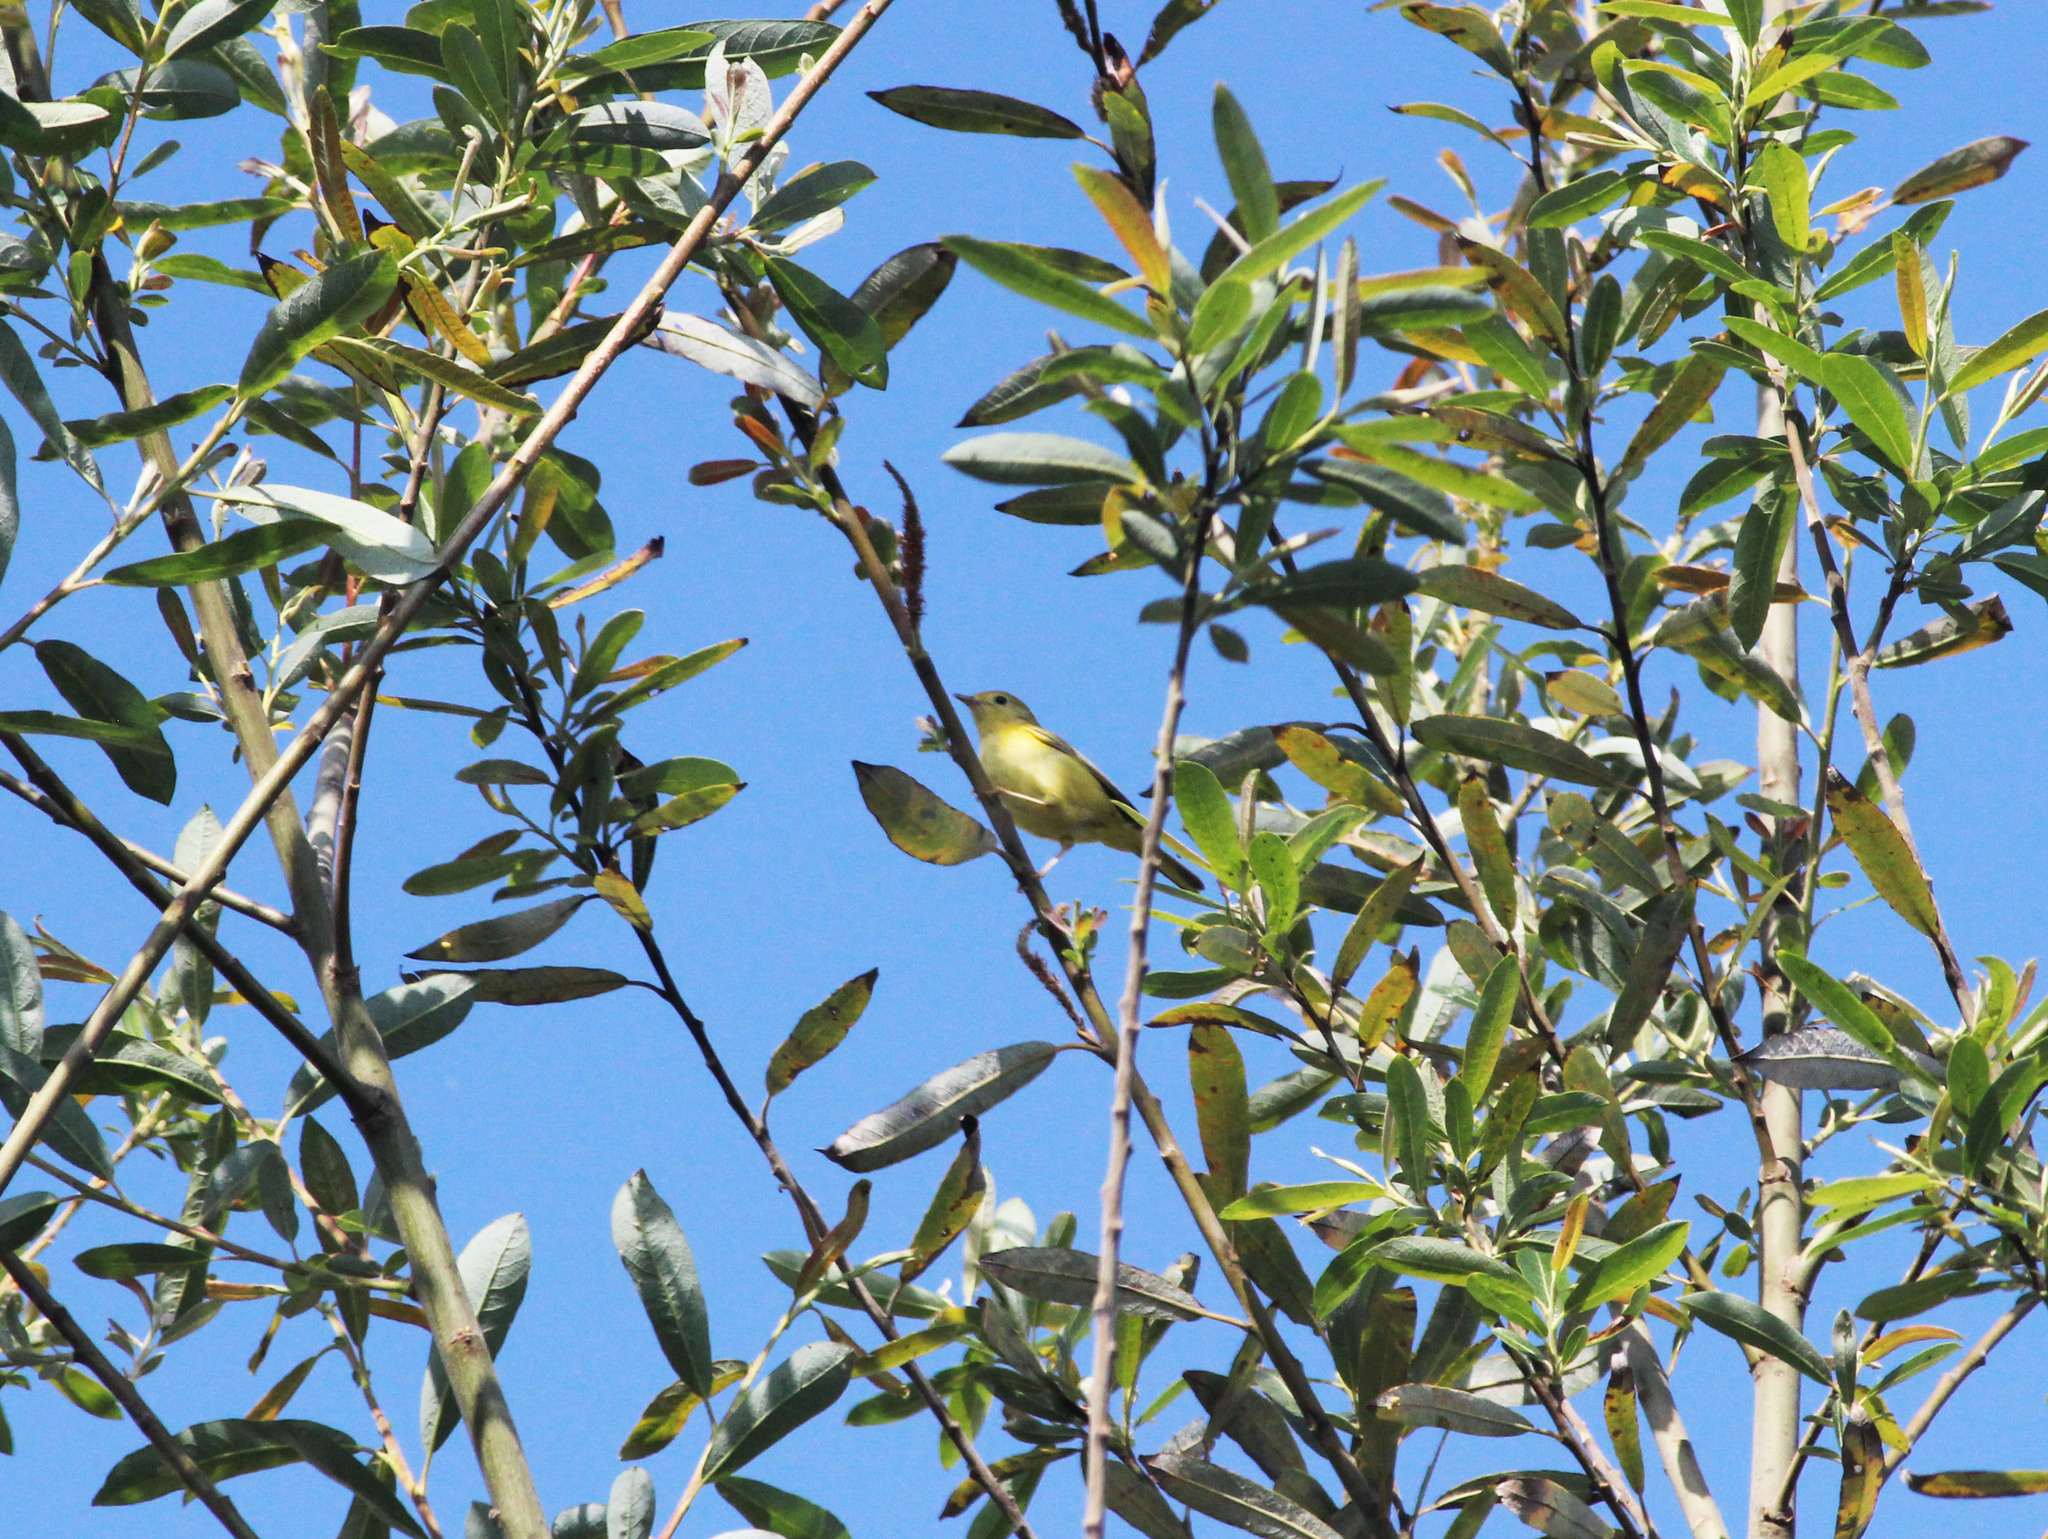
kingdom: Animalia
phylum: Chordata
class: Aves
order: Passeriformes
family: Parulidae
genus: Setophaga
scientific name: Setophaga petechia
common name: Yellow warbler
